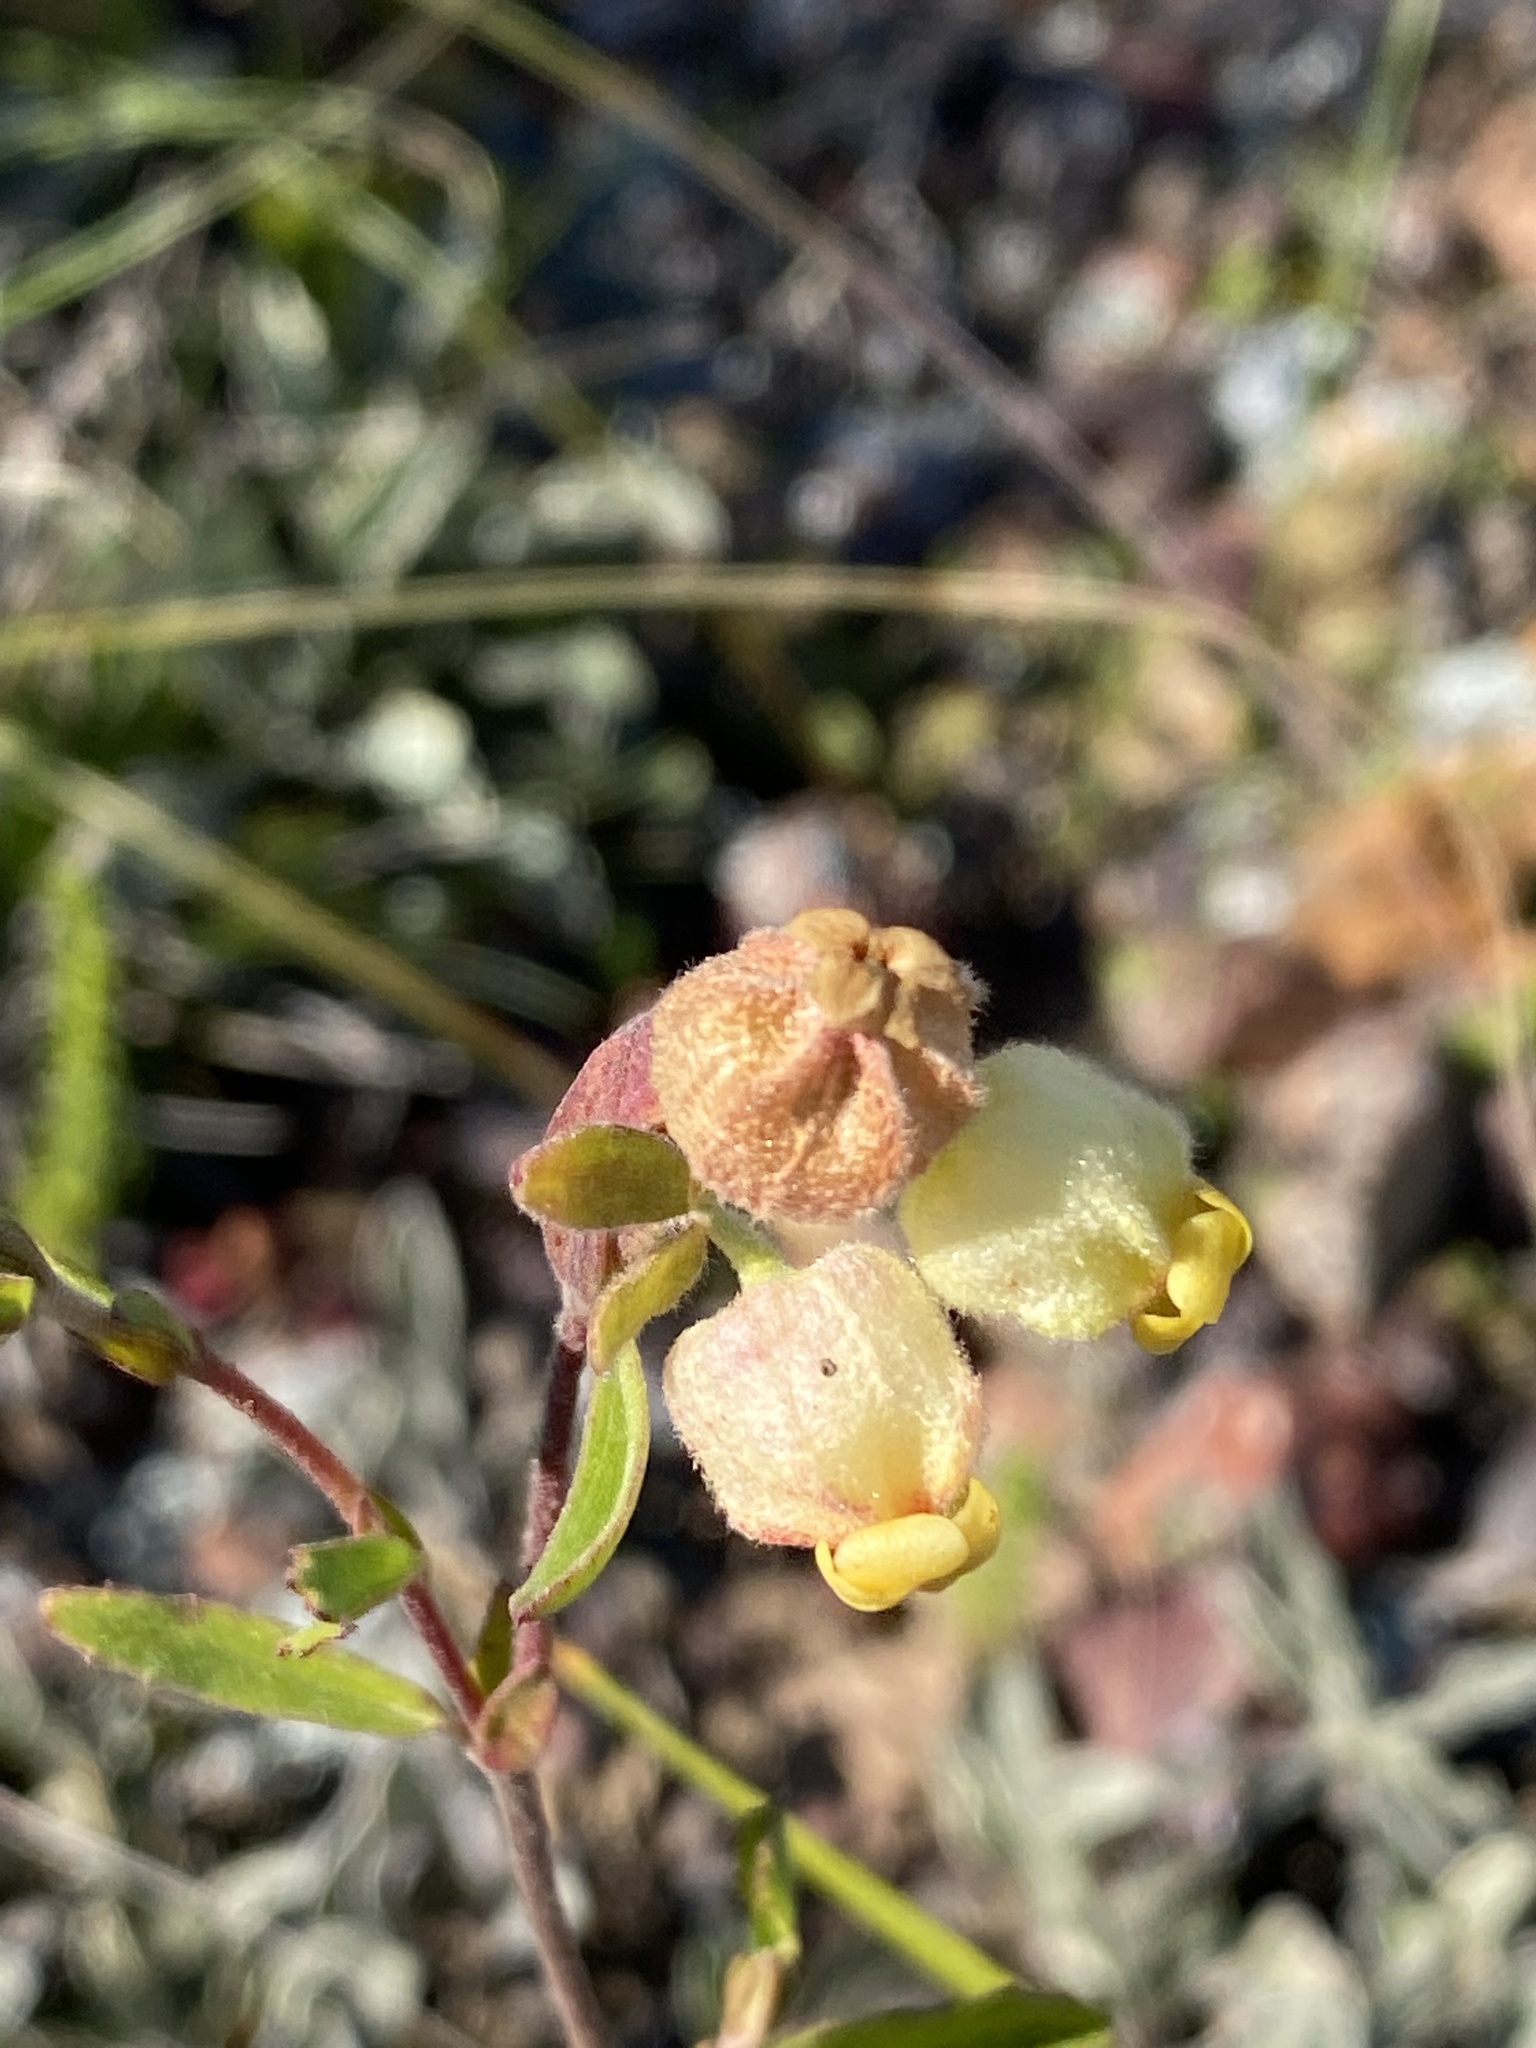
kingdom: Plantae
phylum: Tracheophyta
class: Magnoliopsida
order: Malvales
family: Malvaceae
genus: Hermannia
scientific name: Hermannia hyssopifolia
